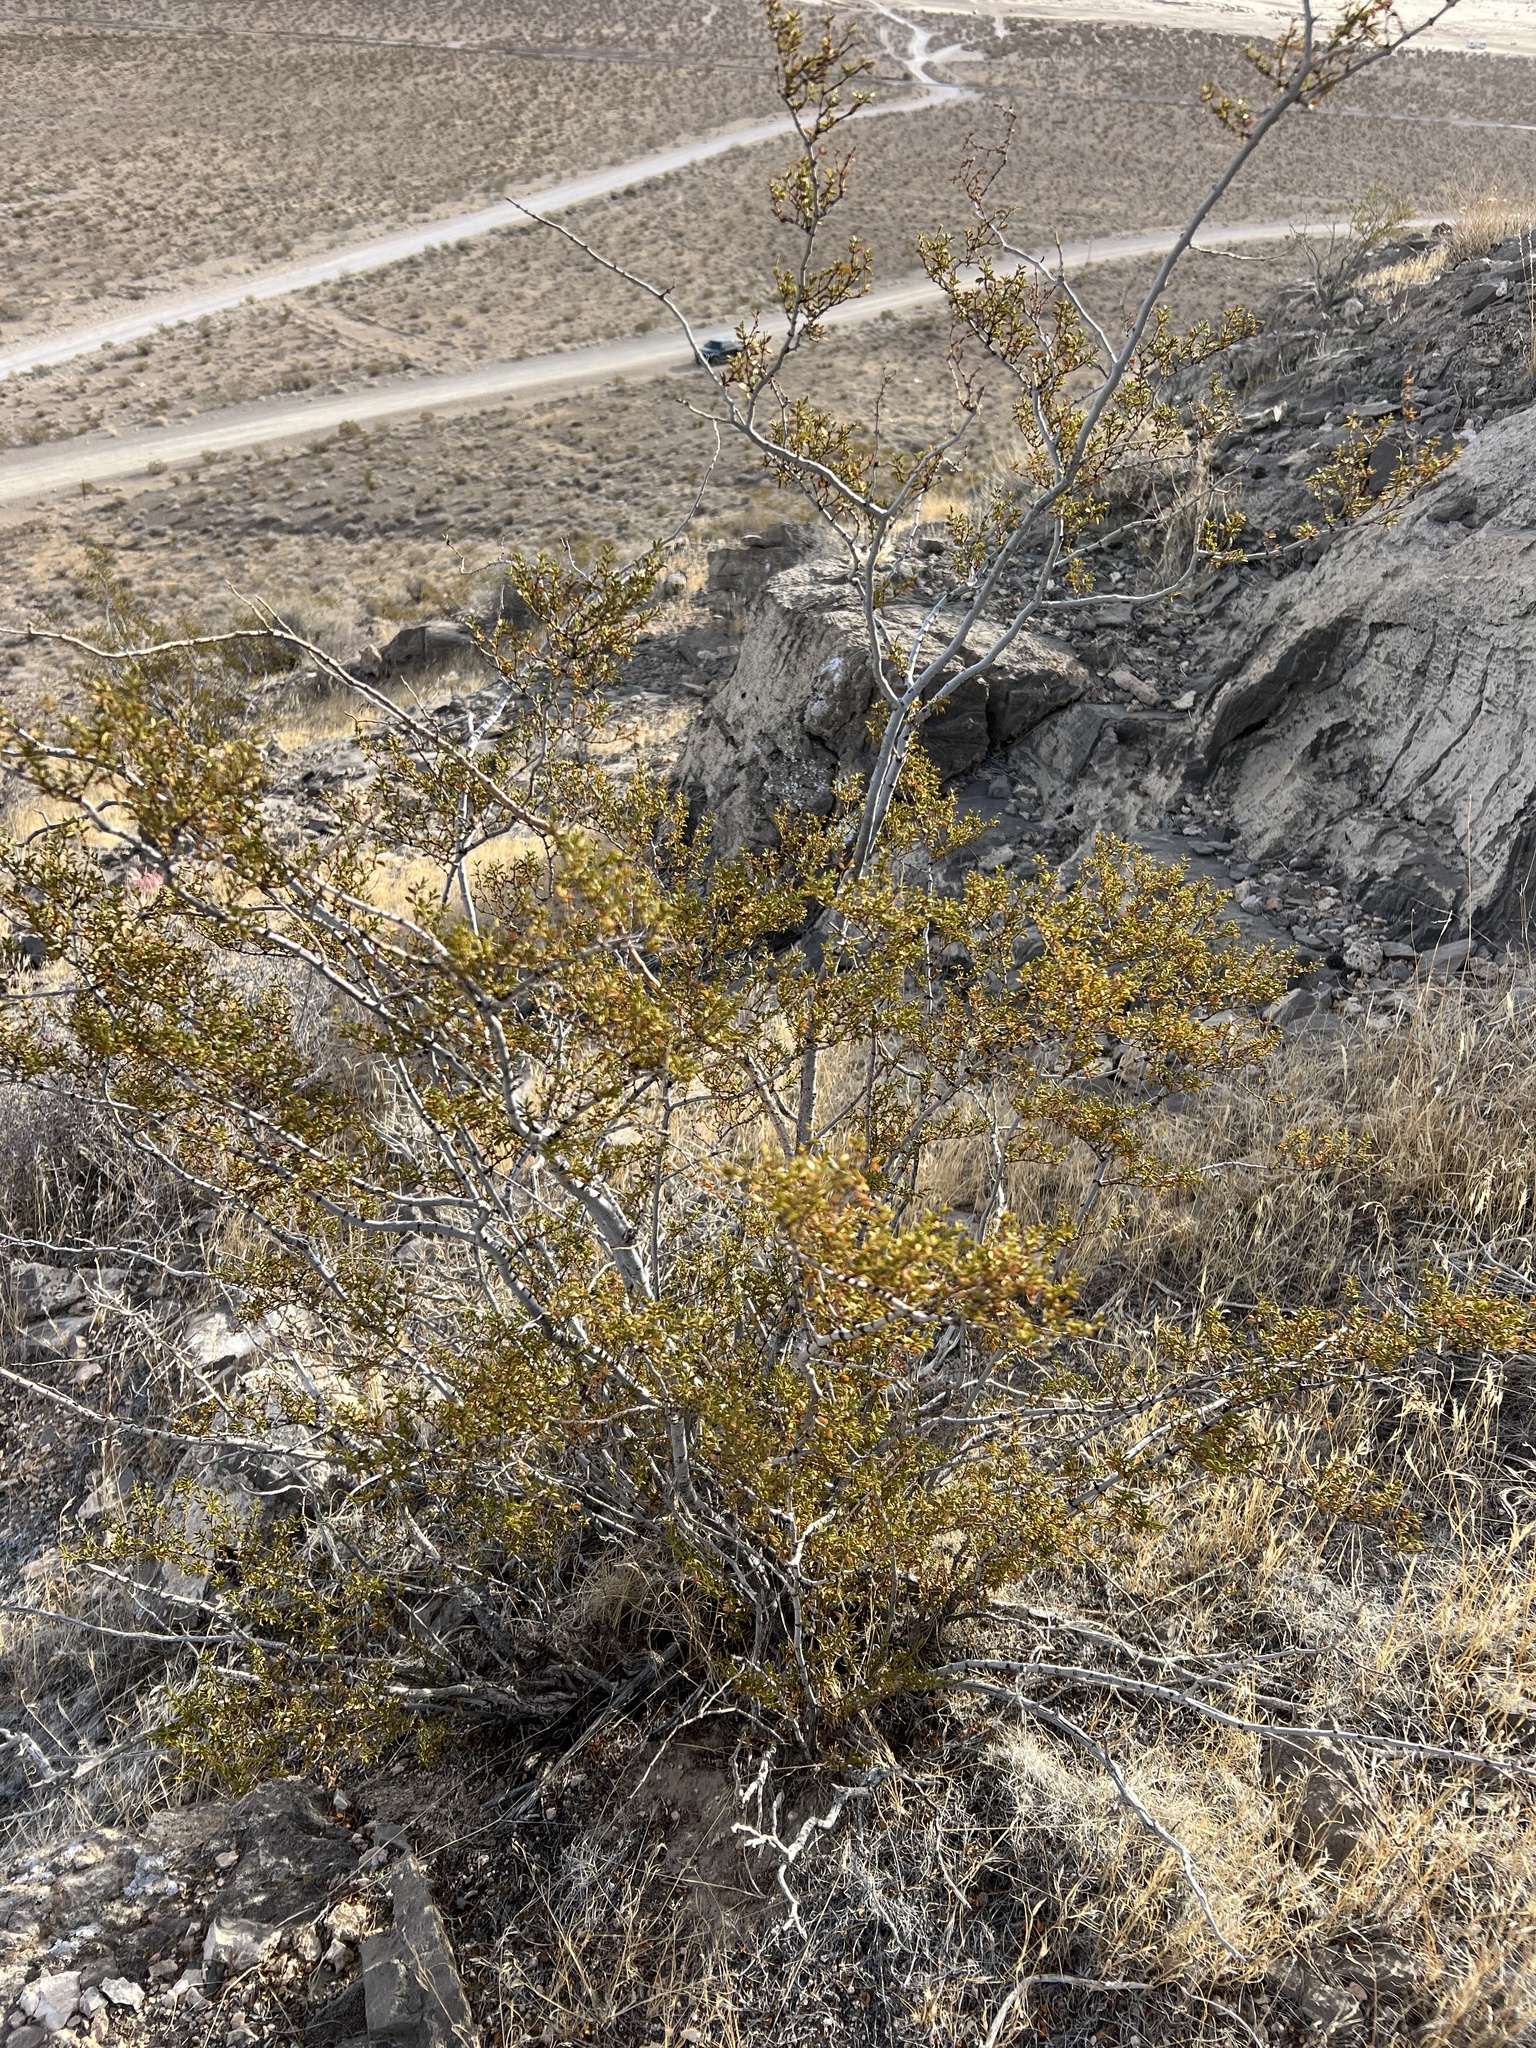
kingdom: Plantae
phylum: Tracheophyta
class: Magnoliopsida
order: Zygophyllales
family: Zygophyllaceae
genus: Larrea
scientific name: Larrea tridentata
